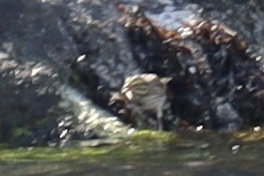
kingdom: Animalia
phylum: Chordata
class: Aves
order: Passeriformes
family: Passerellidae
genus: Passerculus
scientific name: Passerculus sandwichensis
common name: Savannah sparrow
